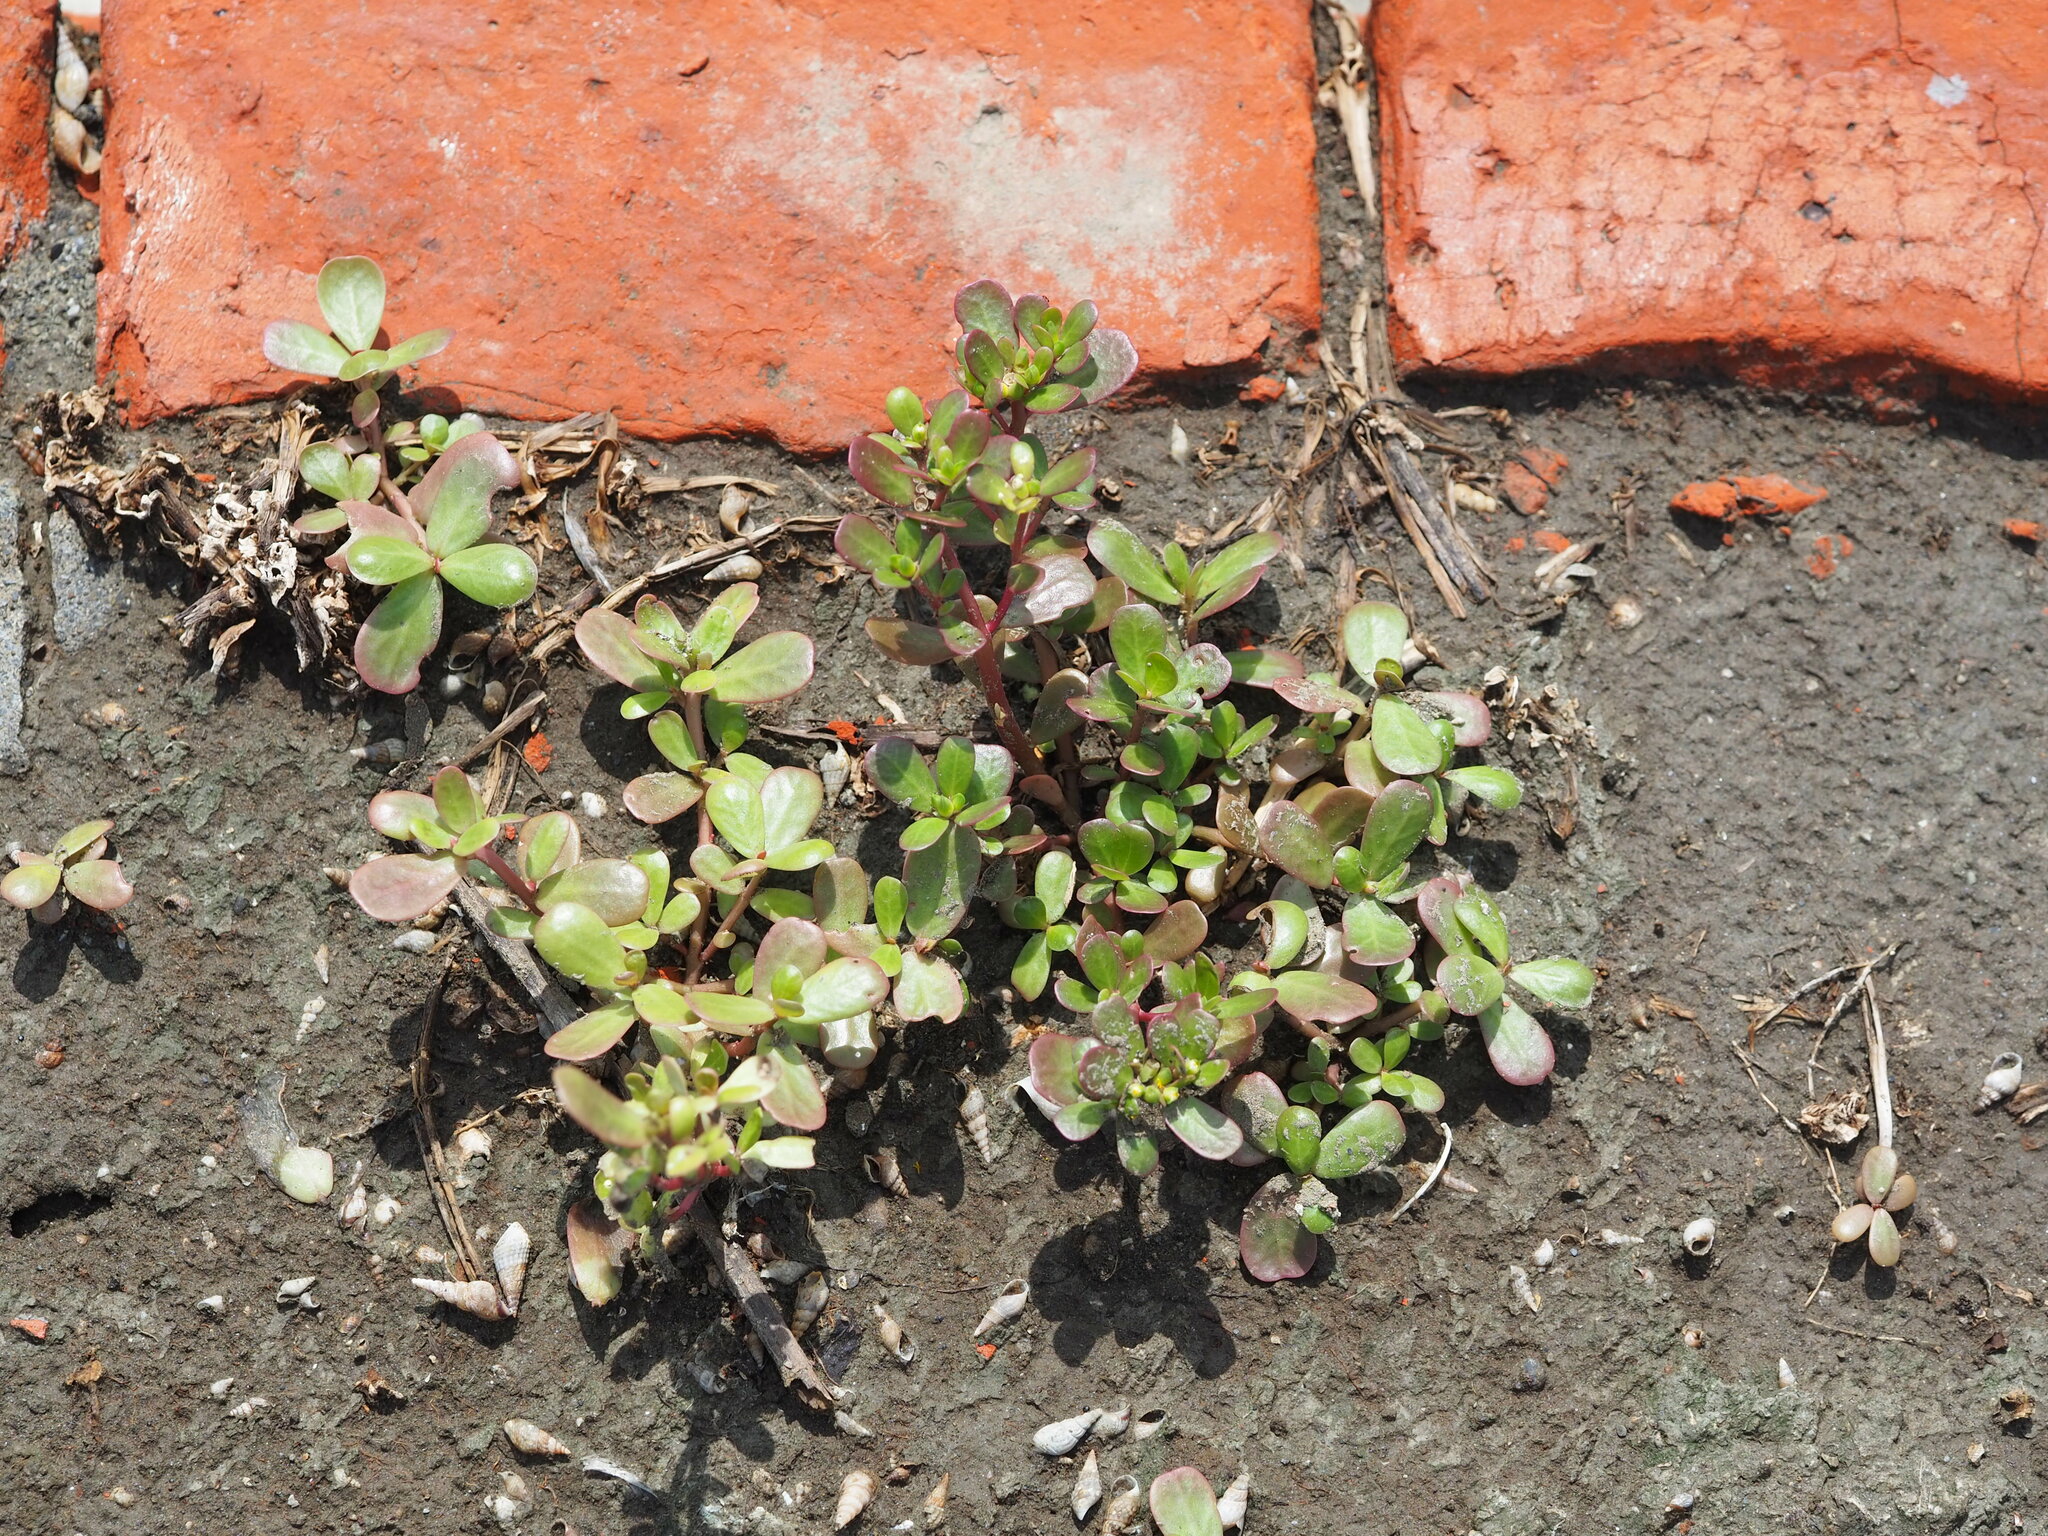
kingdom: Plantae
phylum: Tracheophyta
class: Magnoliopsida
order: Caryophyllales
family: Portulacaceae
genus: Portulaca
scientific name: Portulaca oleracea
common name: Common purslane
